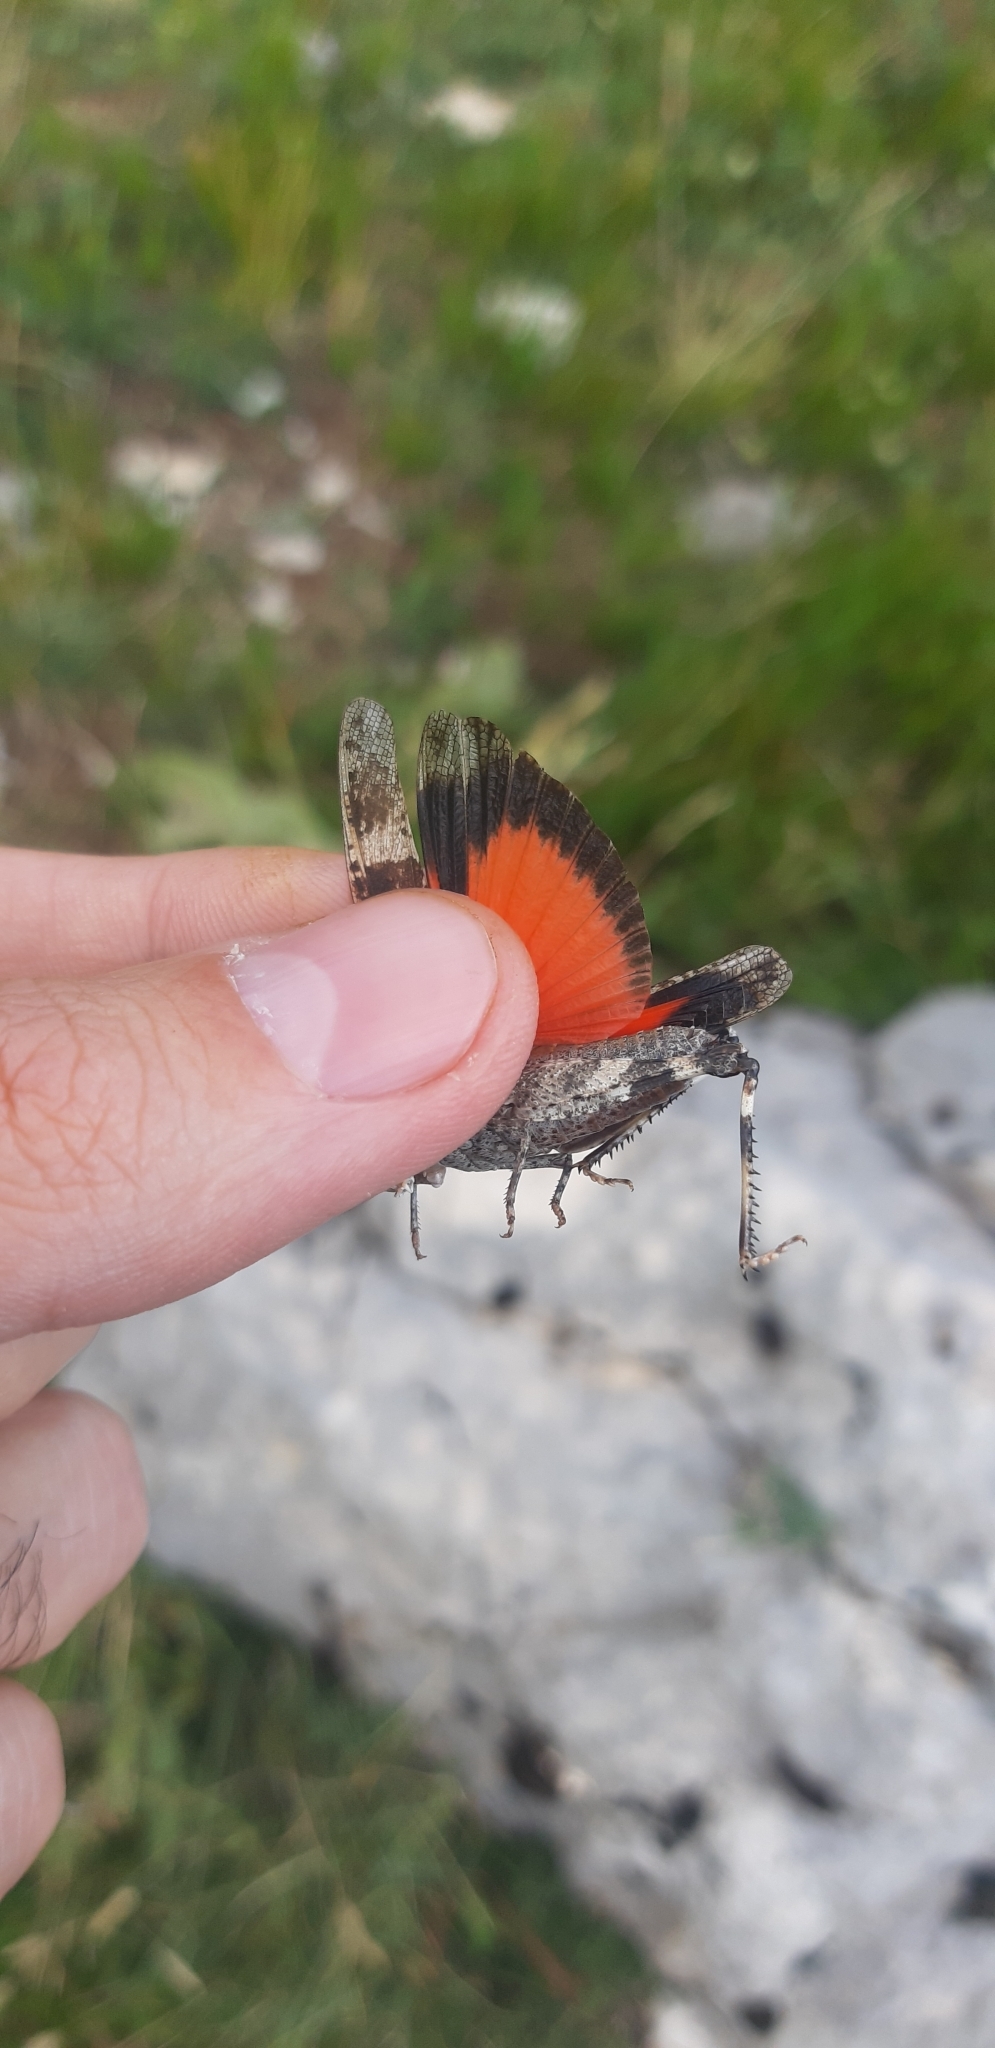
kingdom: Animalia
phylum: Arthropoda
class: Insecta
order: Orthoptera
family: Acrididae
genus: Oedipoda
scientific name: Oedipoda germanica
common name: Red band-winged grasshopper
